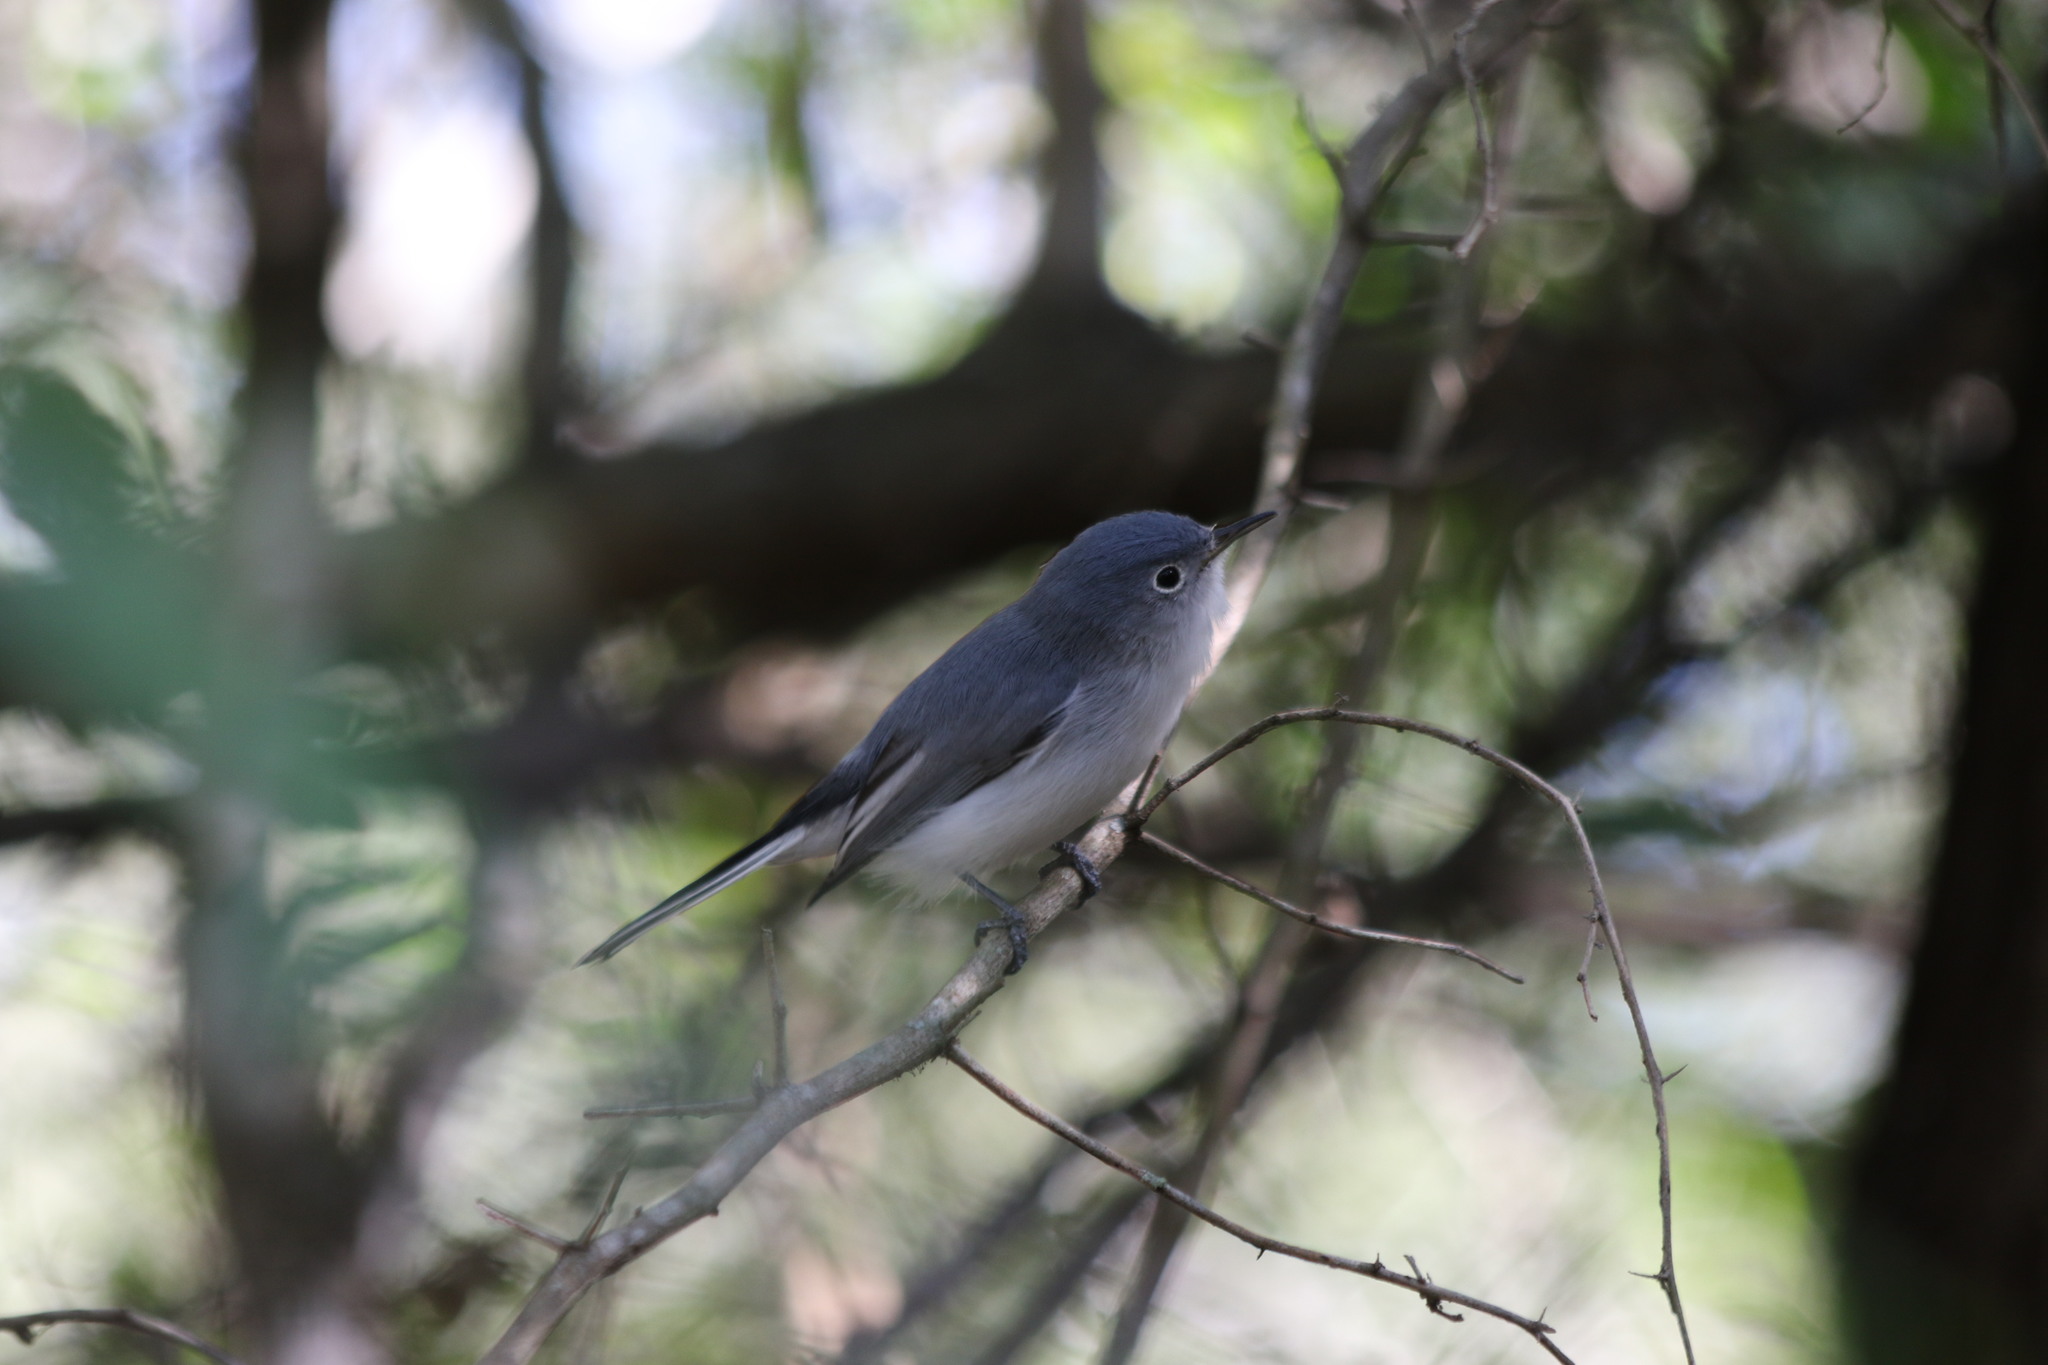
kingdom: Animalia
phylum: Chordata
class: Aves
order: Passeriformes
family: Polioptilidae
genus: Polioptila
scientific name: Polioptila caerulea
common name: Blue-gray gnatcatcher
